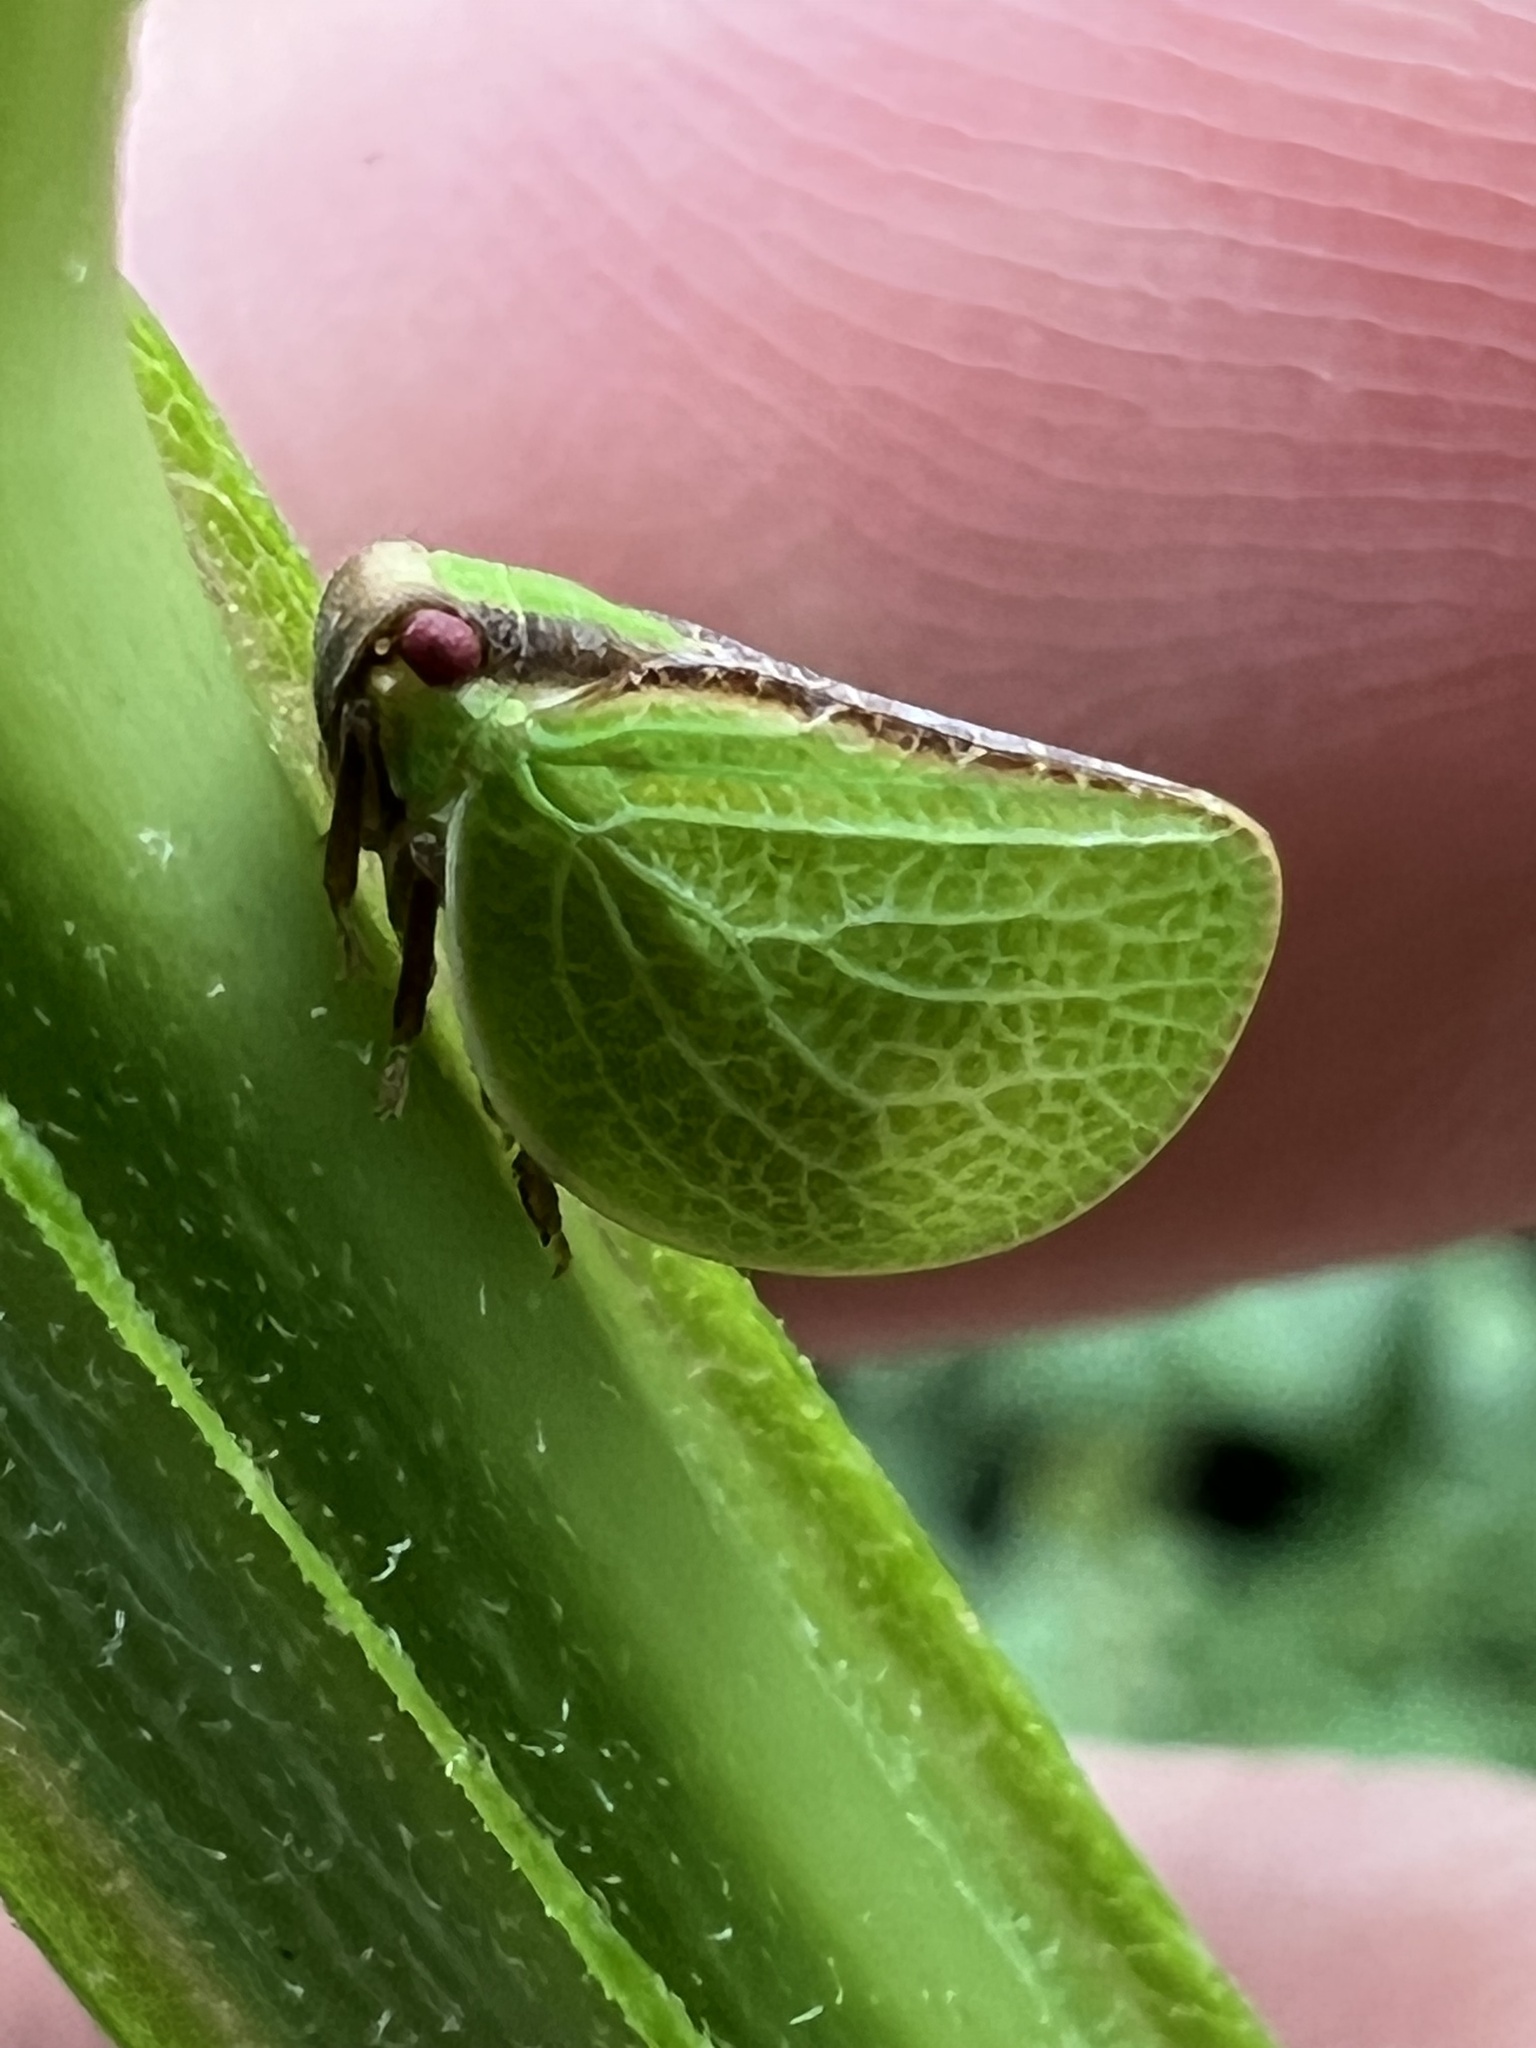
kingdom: Animalia
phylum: Arthropoda
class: Insecta
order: Hemiptera
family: Acanaloniidae
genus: Acanalonia
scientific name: Acanalonia bivittata
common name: Two-striped planthopper
